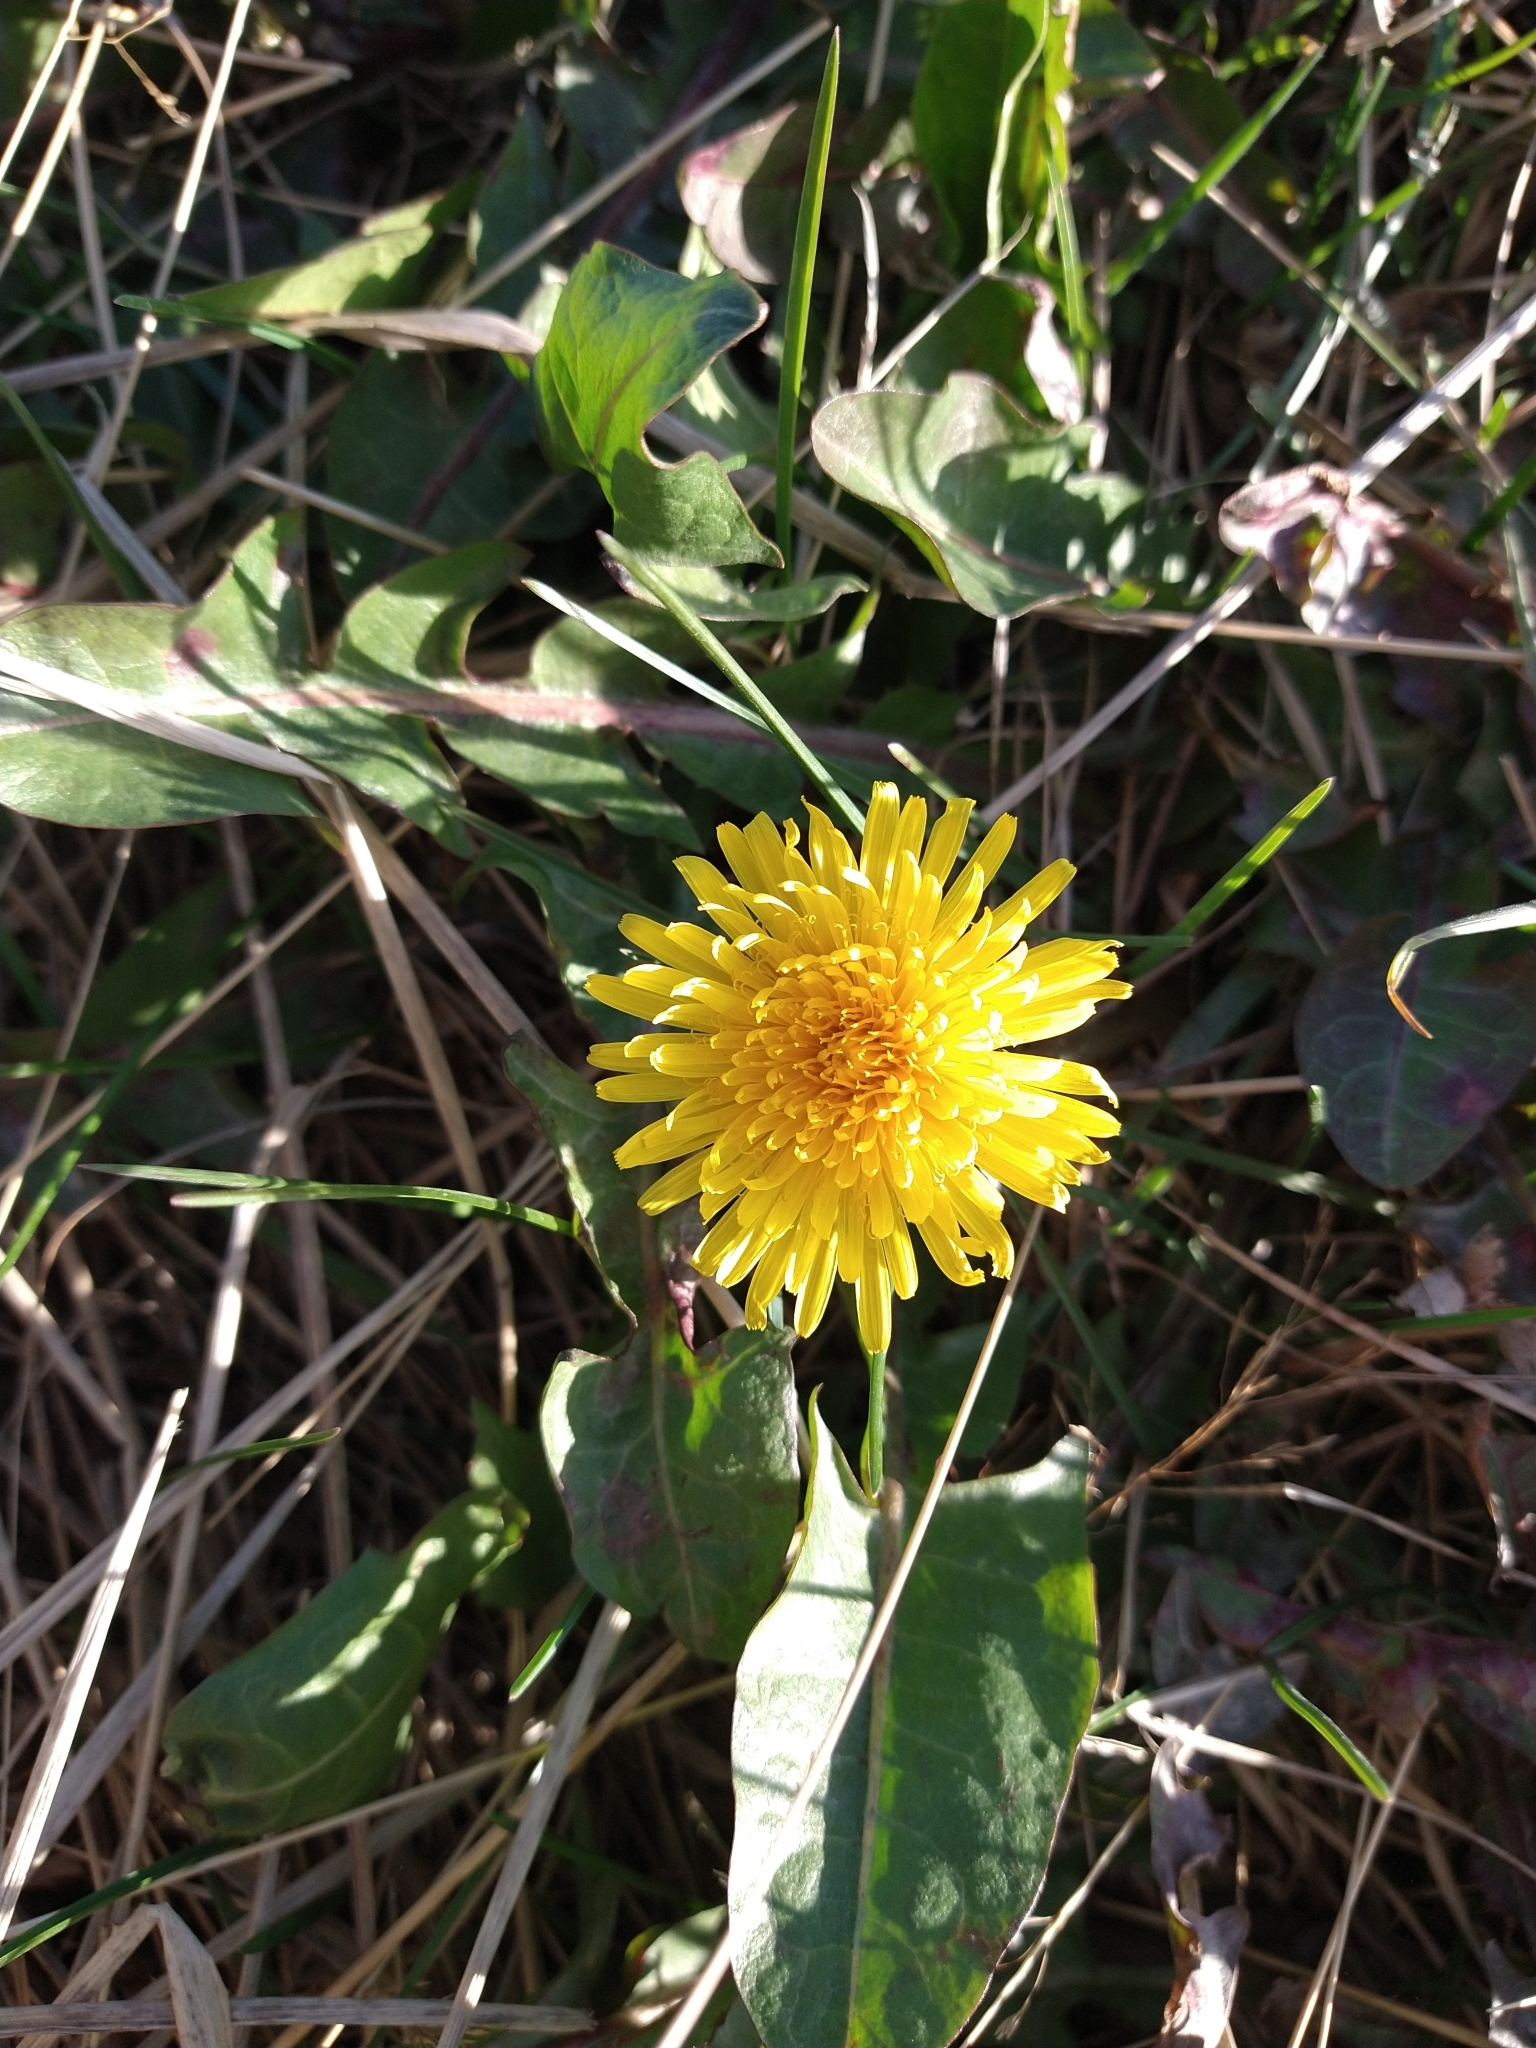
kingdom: Plantae
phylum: Tracheophyta
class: Magnoliopsida
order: Asterales
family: Asteraceae
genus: Taraxacum
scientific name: Taraxacum officinale
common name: Common dandelion
